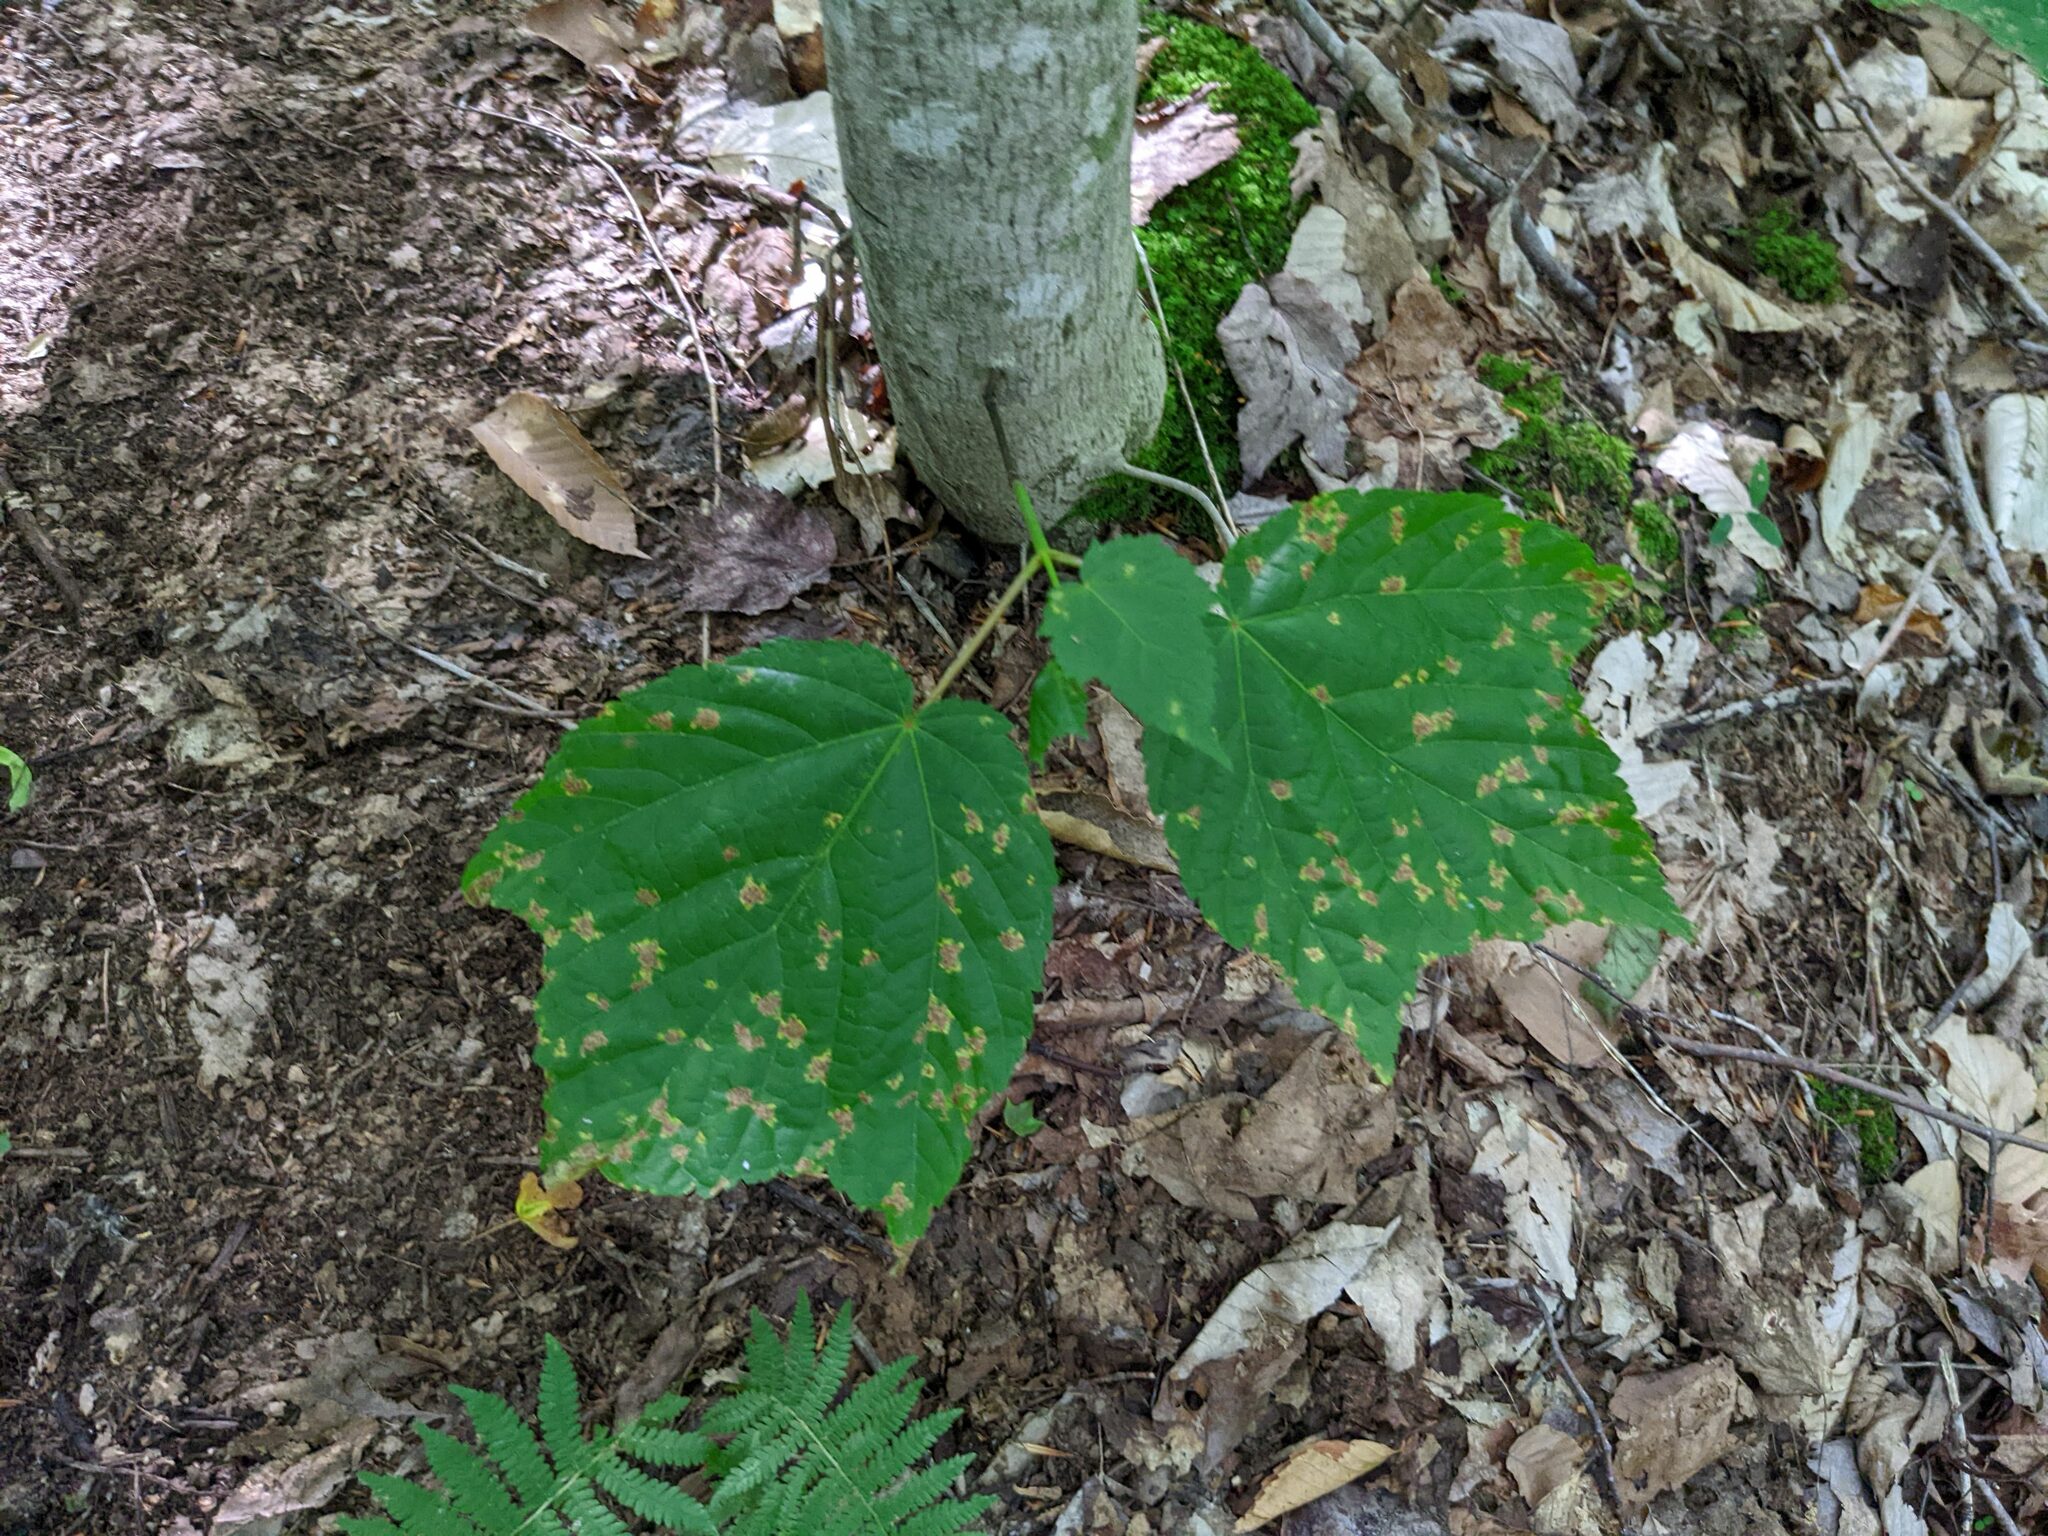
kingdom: Plantae
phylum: Tracheophyta
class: Magnoliopsida
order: Sapindales
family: Sapindaceae
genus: Acer
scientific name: Acer pensylvanicum
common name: Moosewood
